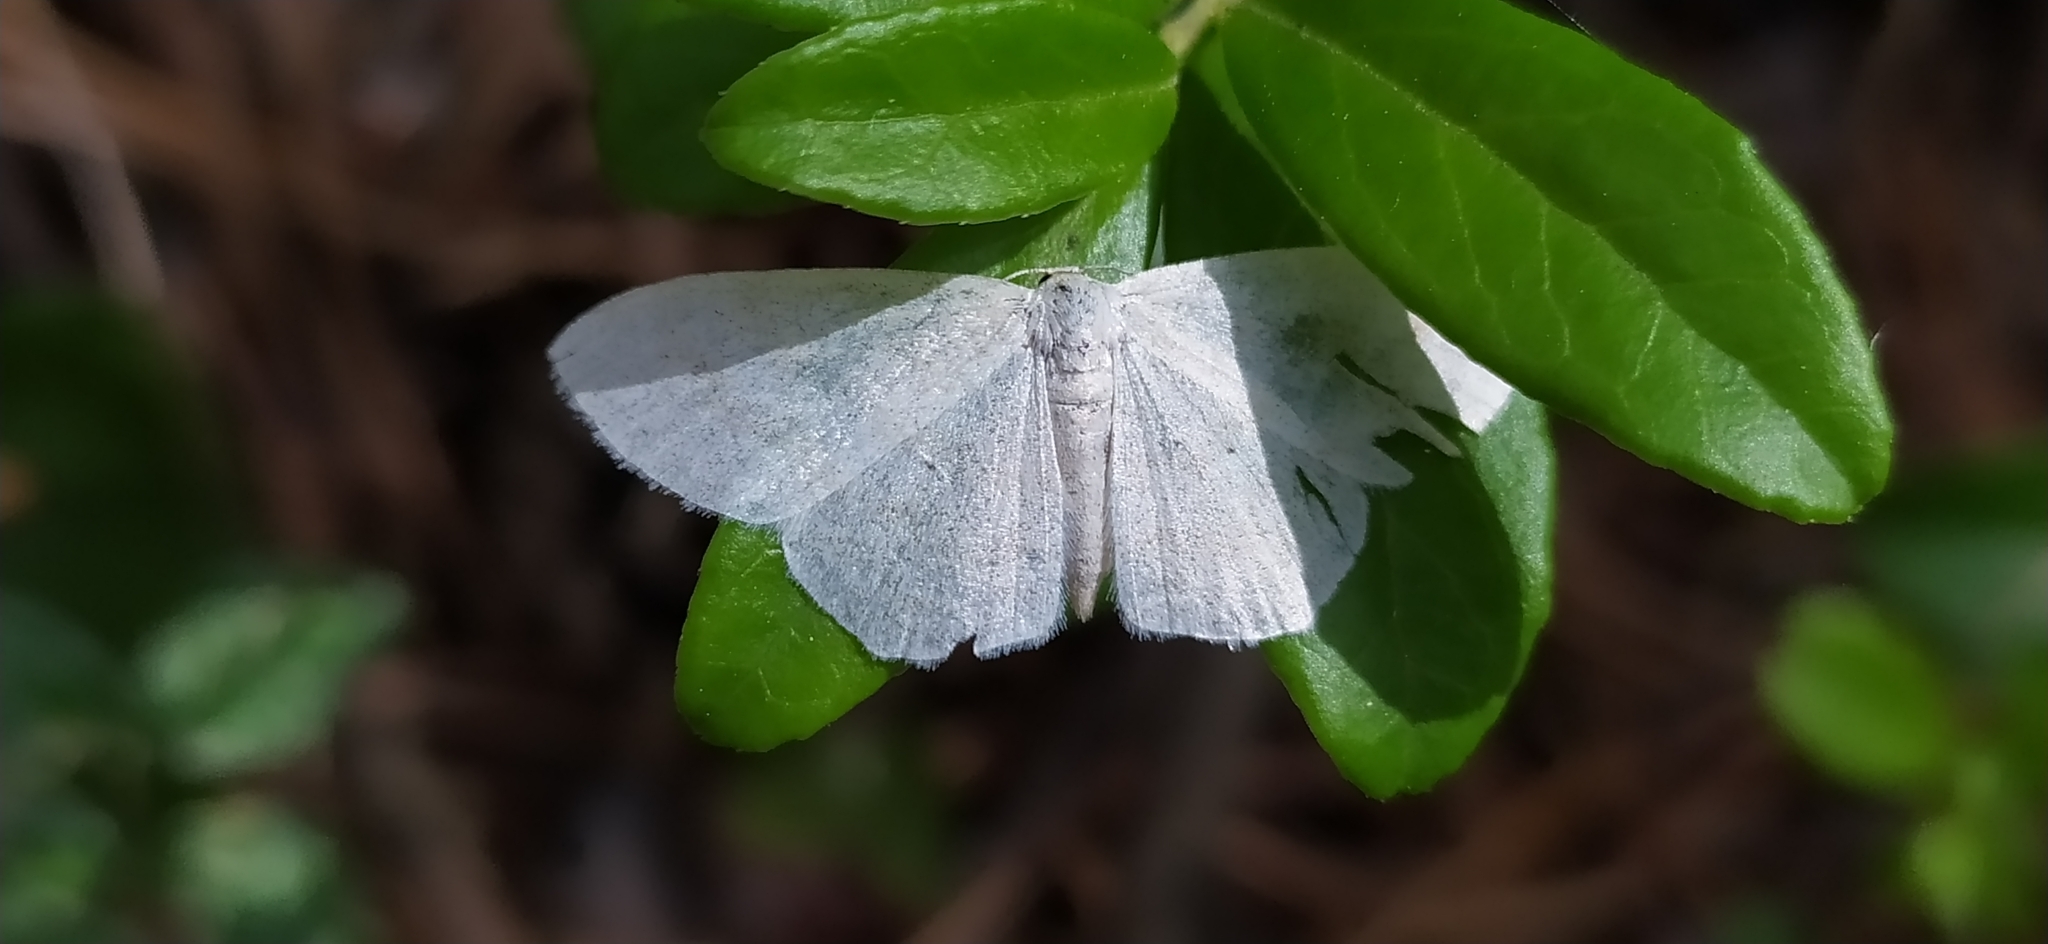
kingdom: Animalia
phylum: Arthropoda
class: Insecta
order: Lepidoptera
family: Geometridae
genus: Scopula
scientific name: Scopula ternata
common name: Smoky wave
